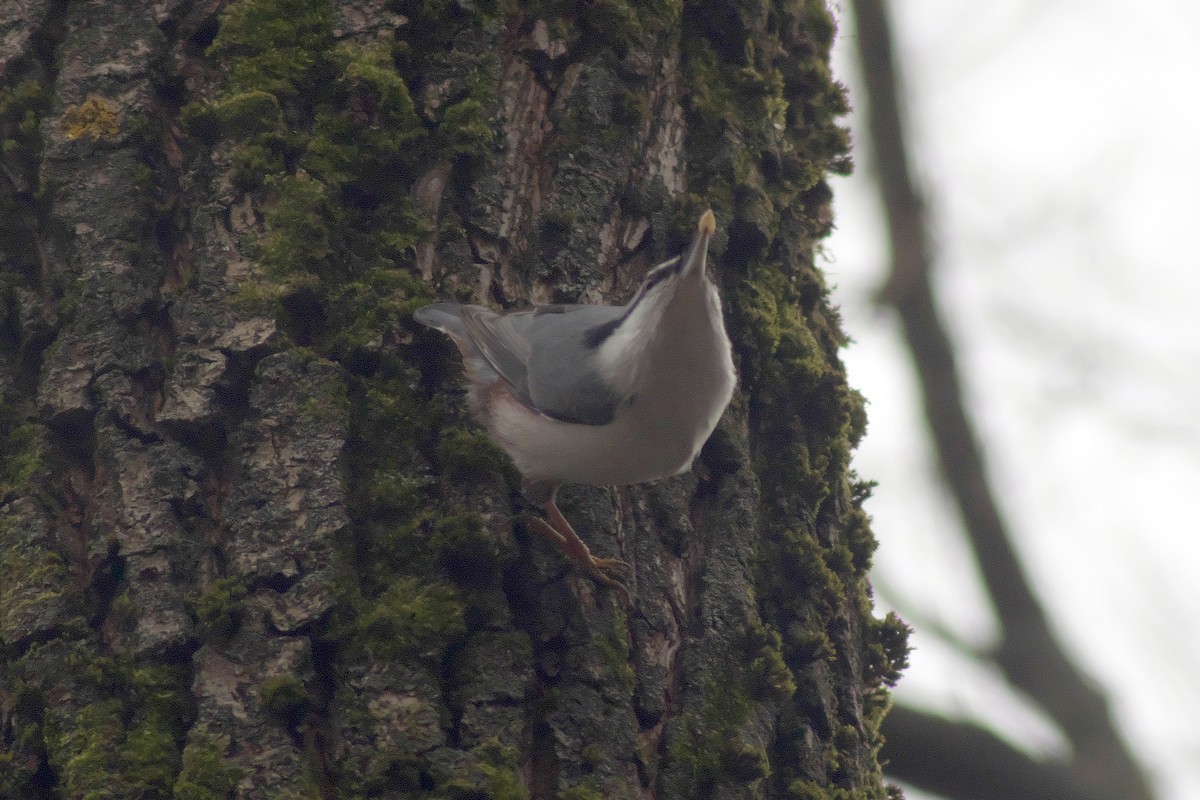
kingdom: Animalia
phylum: Chordata
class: Aves
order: Passeriformes
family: Sittidae
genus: Sitta
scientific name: Sitta europaea
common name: Eurasian nuthatch
